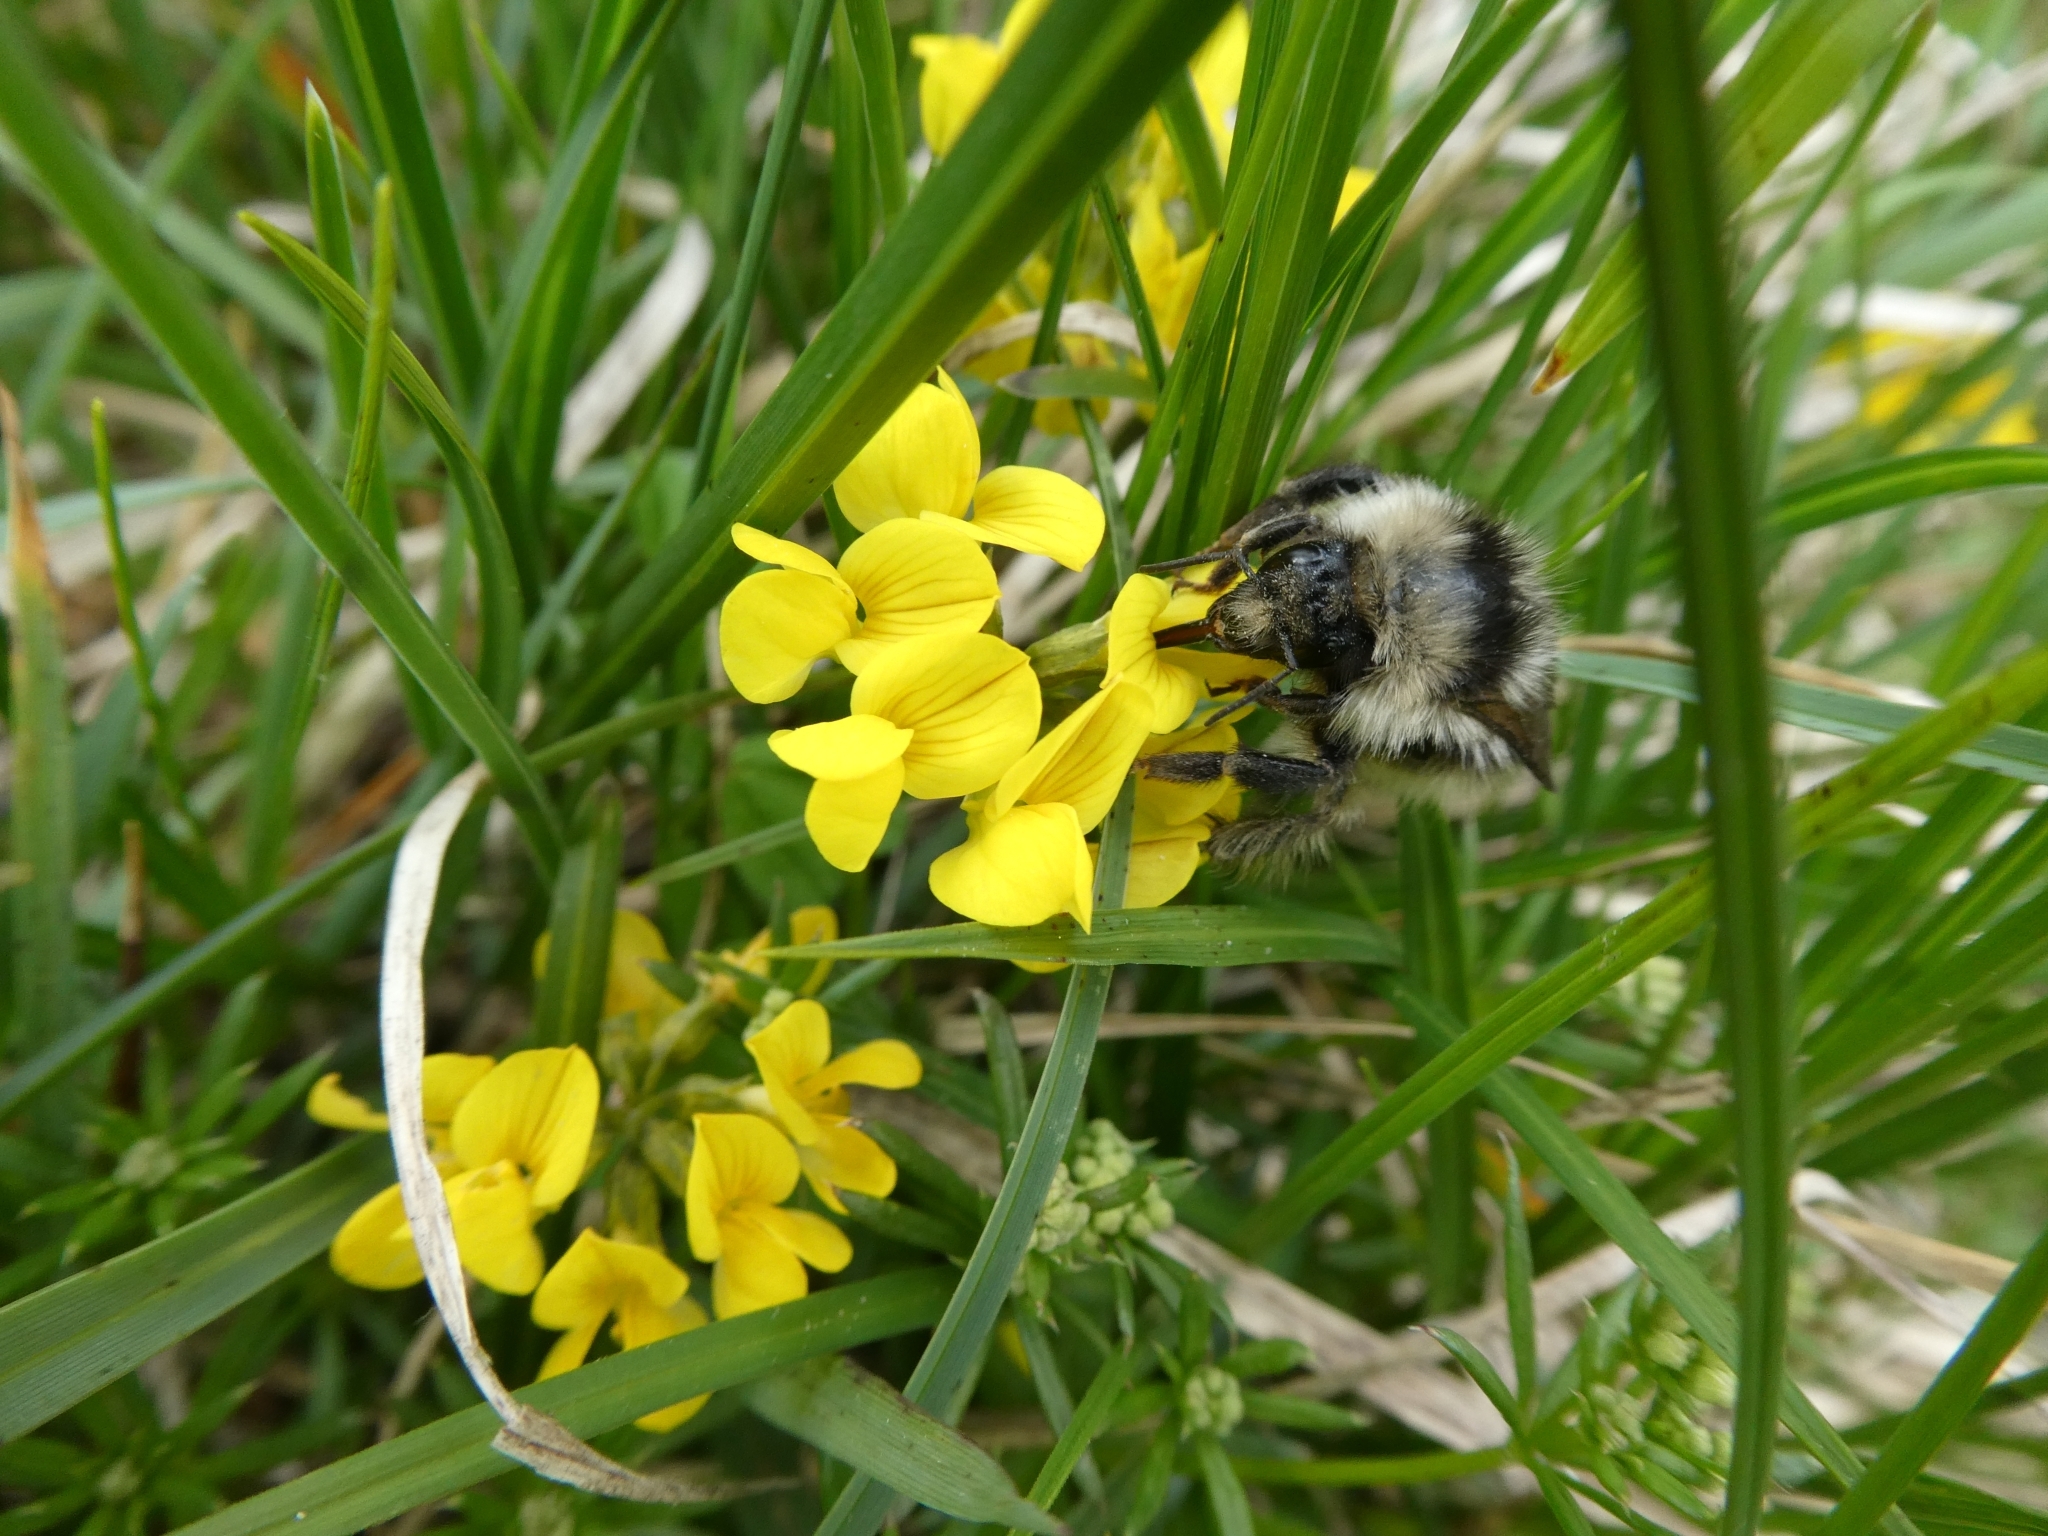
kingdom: Animalia
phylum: Arthropoda
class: Insecta
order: Hymenoptera
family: Apidae
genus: Bombus
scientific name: Bombus mucidus
